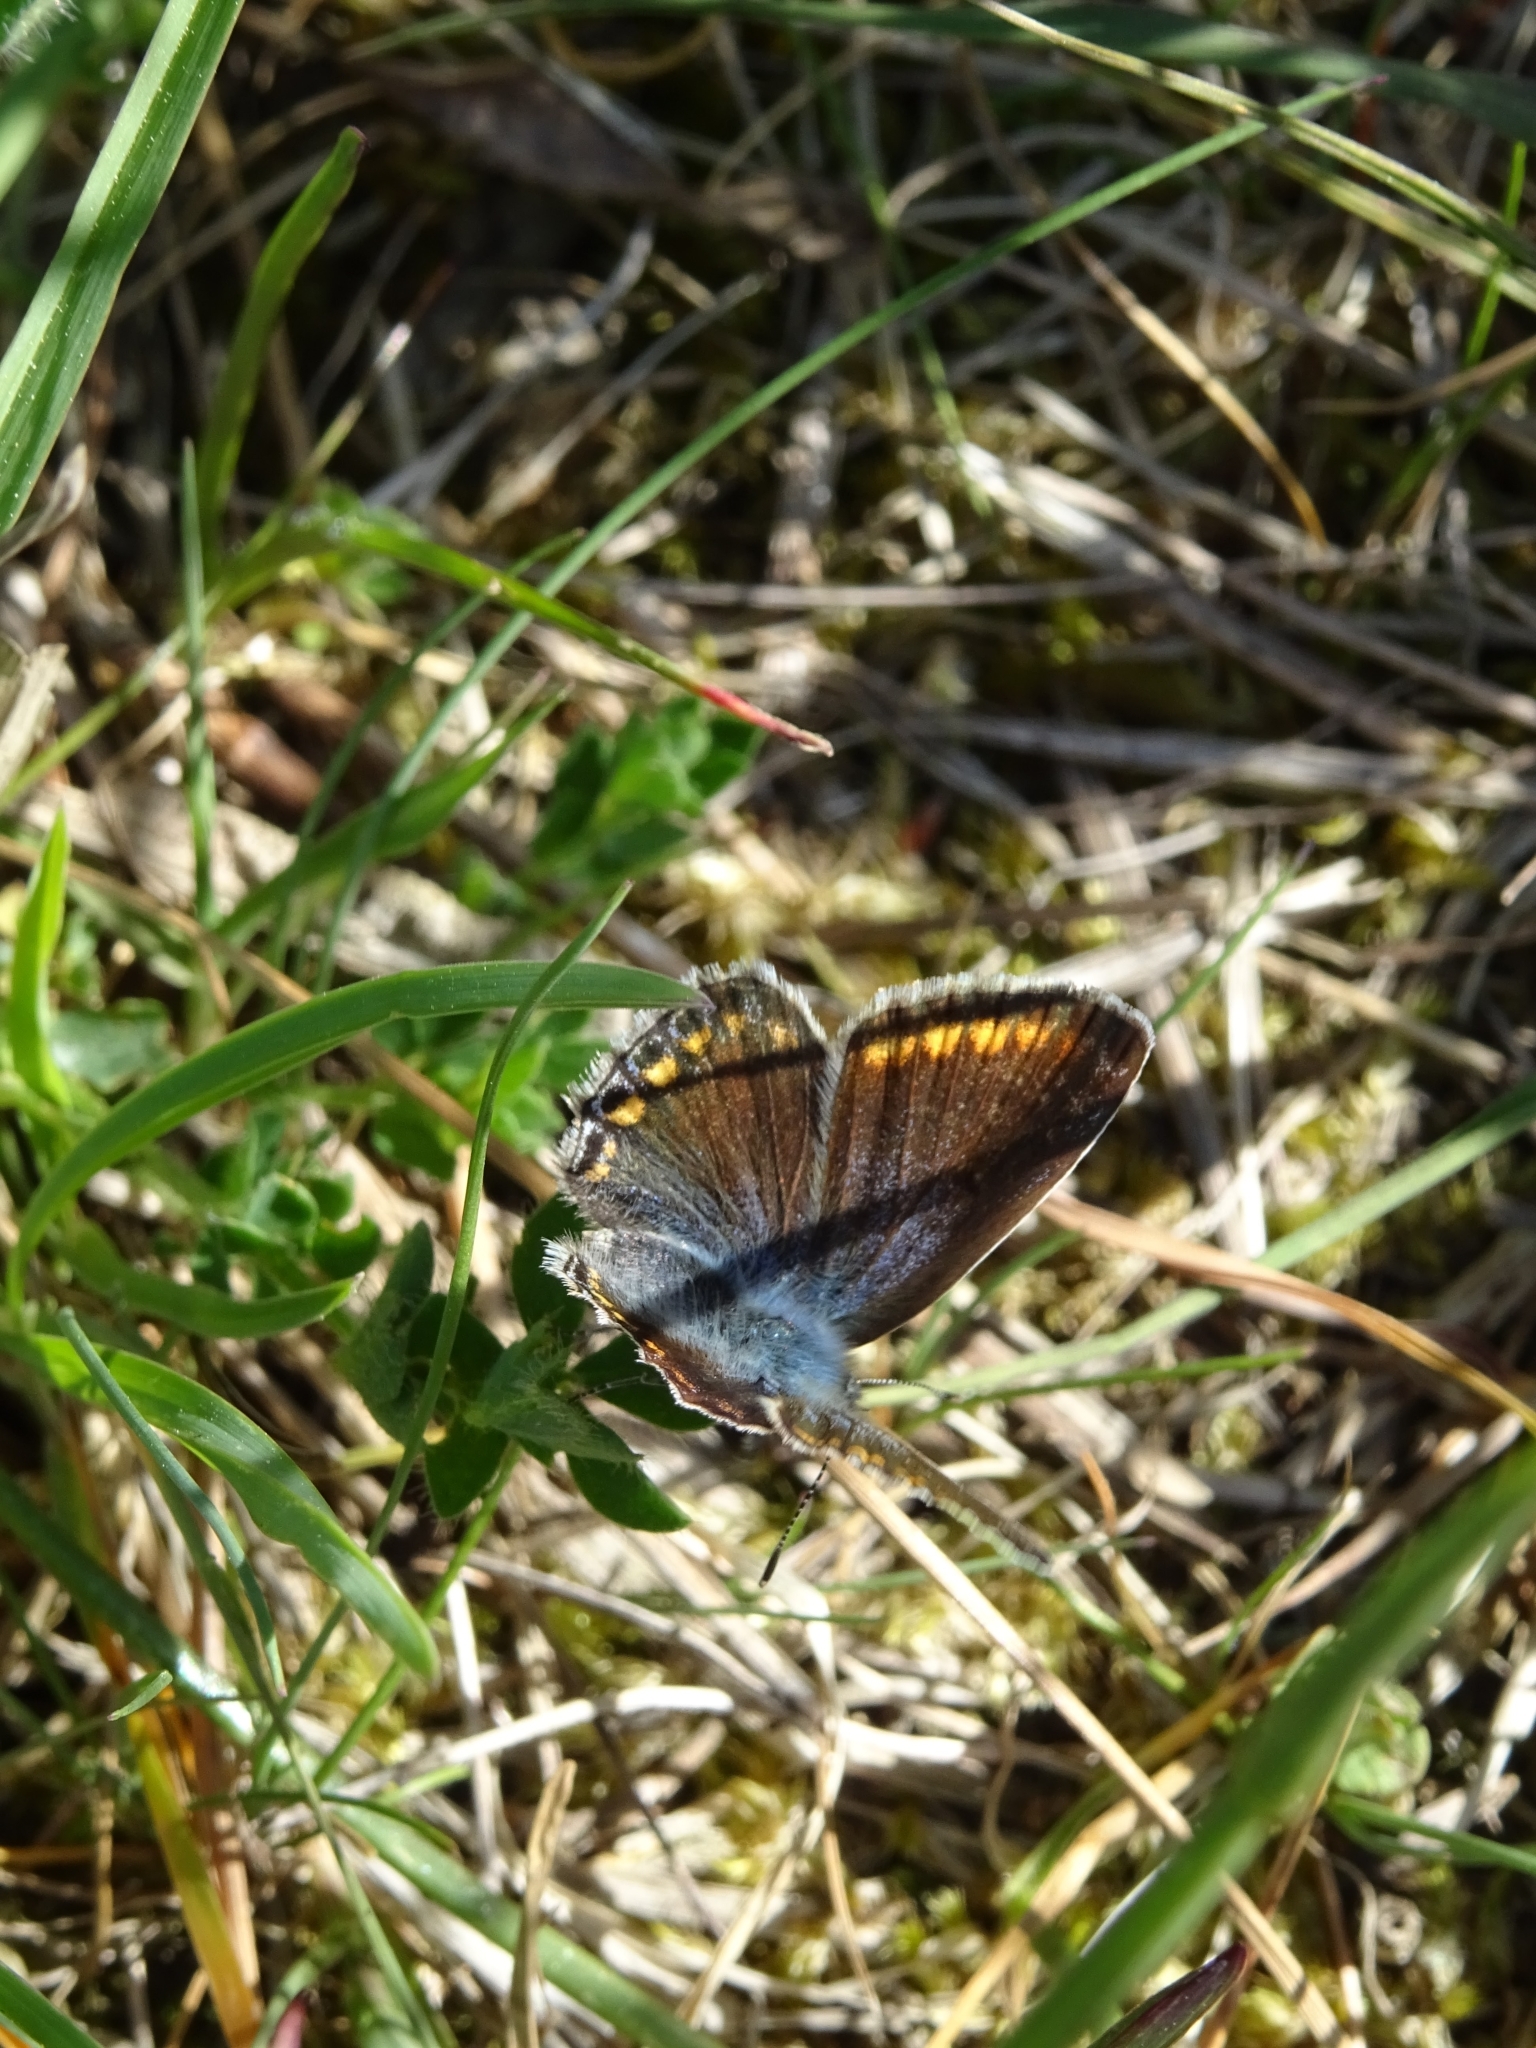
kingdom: Animalia
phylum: Arthropoda
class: Insecta
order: Lepidoptera
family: Lycaenidae
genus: Polyommatus
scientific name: Polyommatus icarus
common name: Common blue
